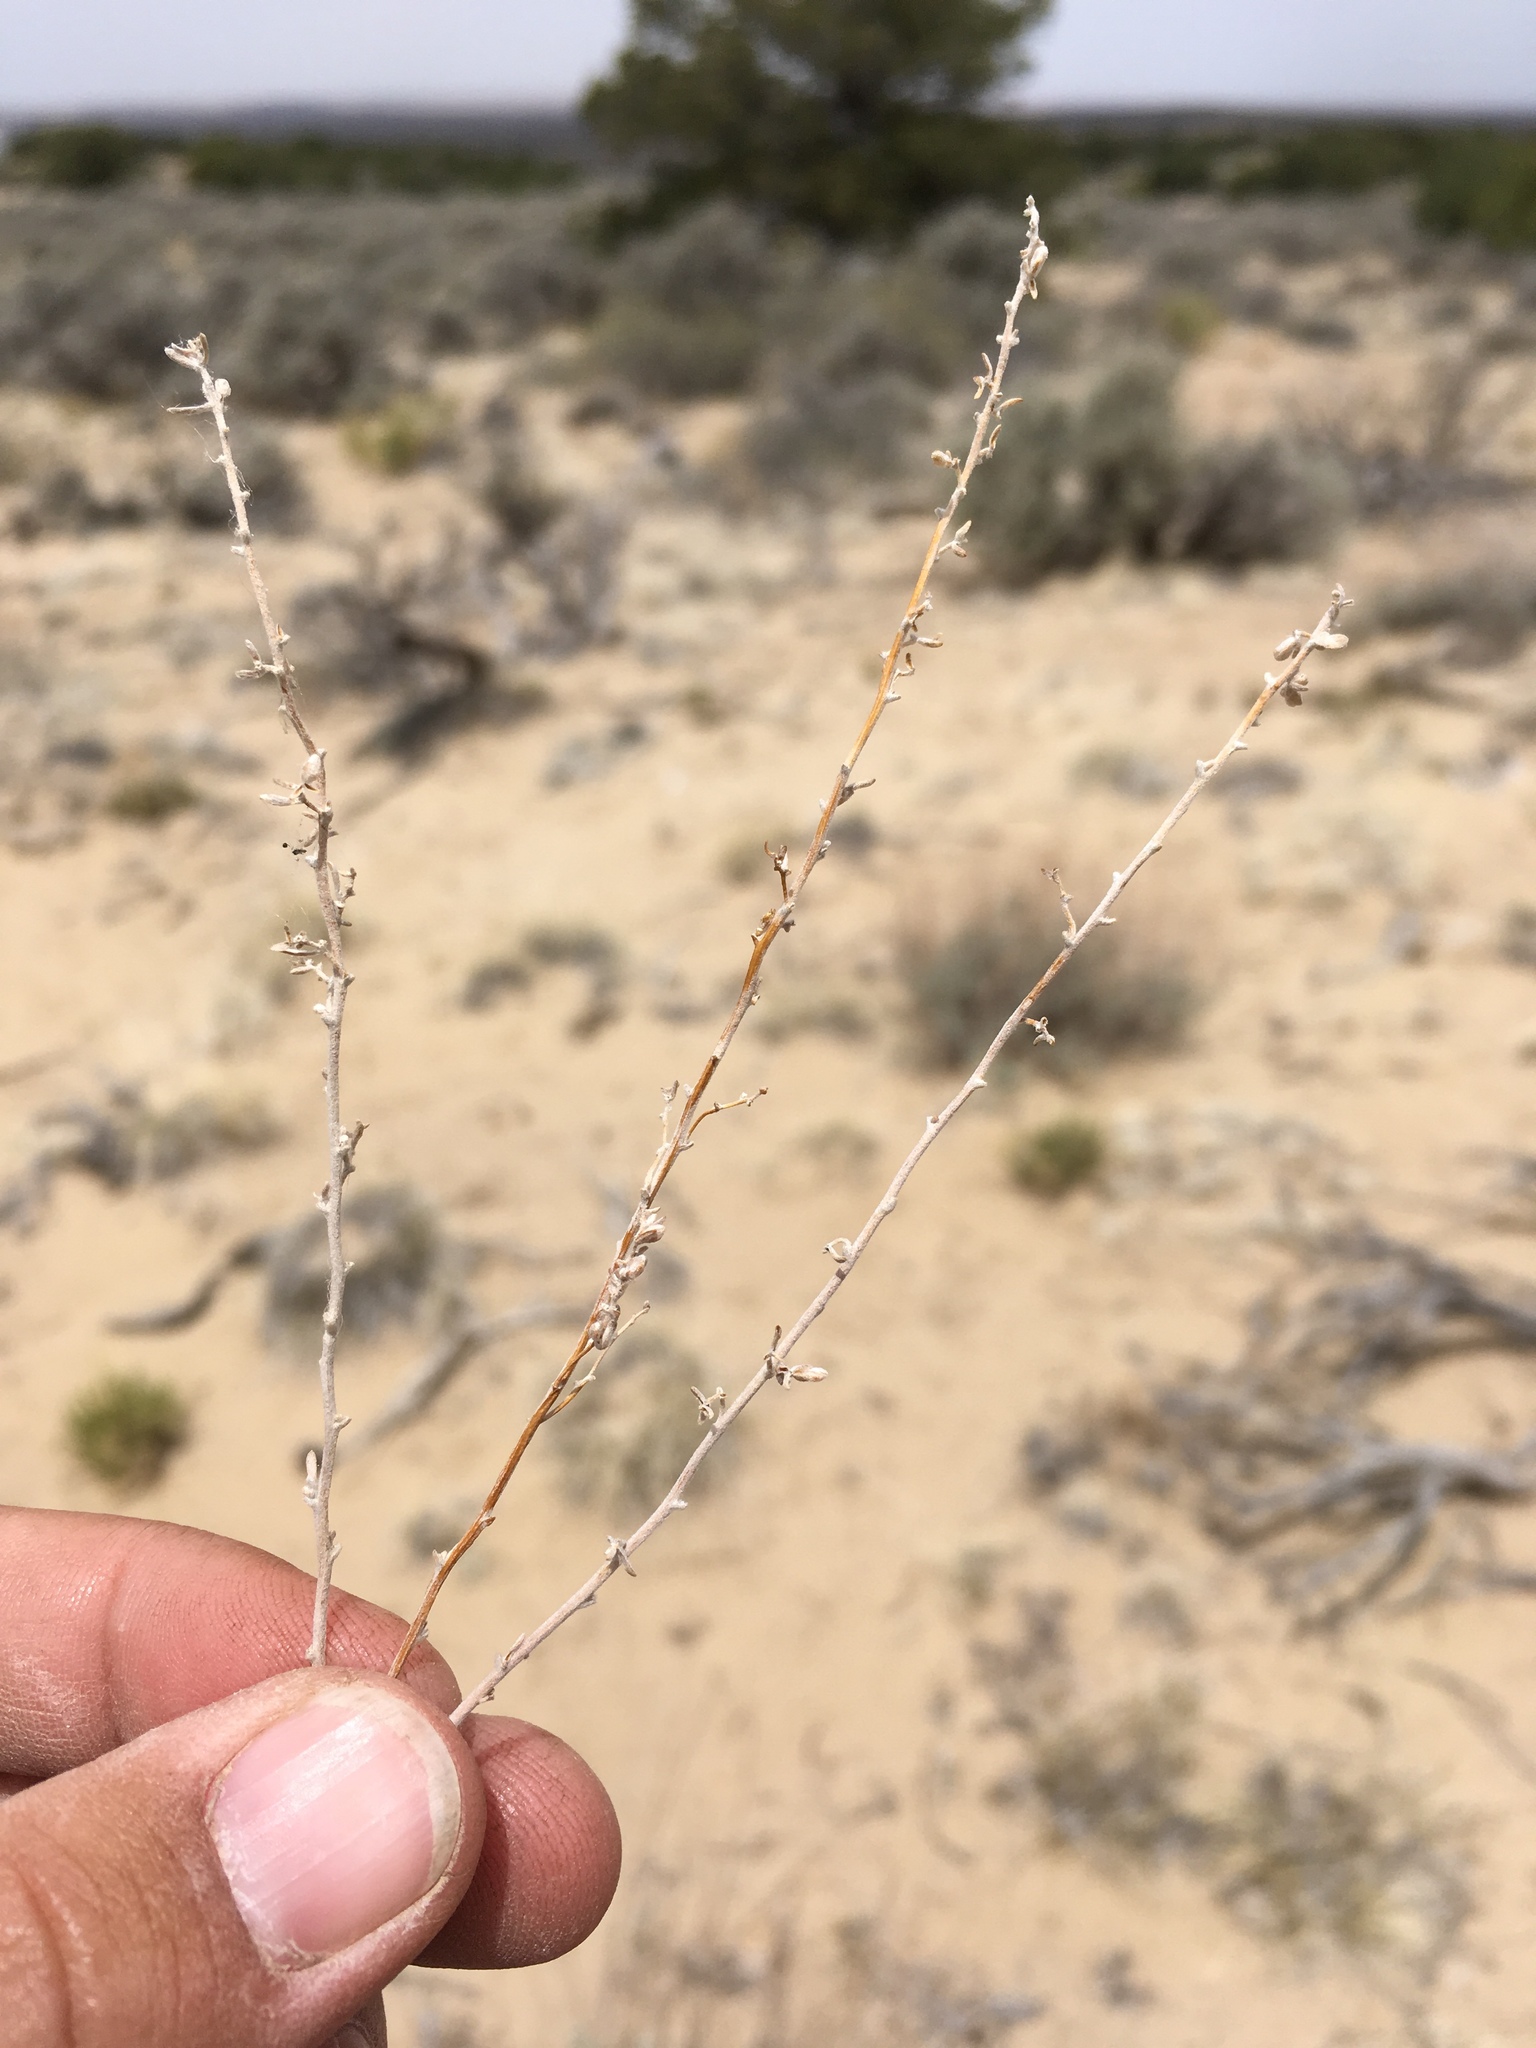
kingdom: Plantae
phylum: Tracheophyta
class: Magnoliopsida
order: Asterales
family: Asteraceae
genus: Artemisia
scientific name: Artemisia bigelovii
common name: Bigelow sagebrush
